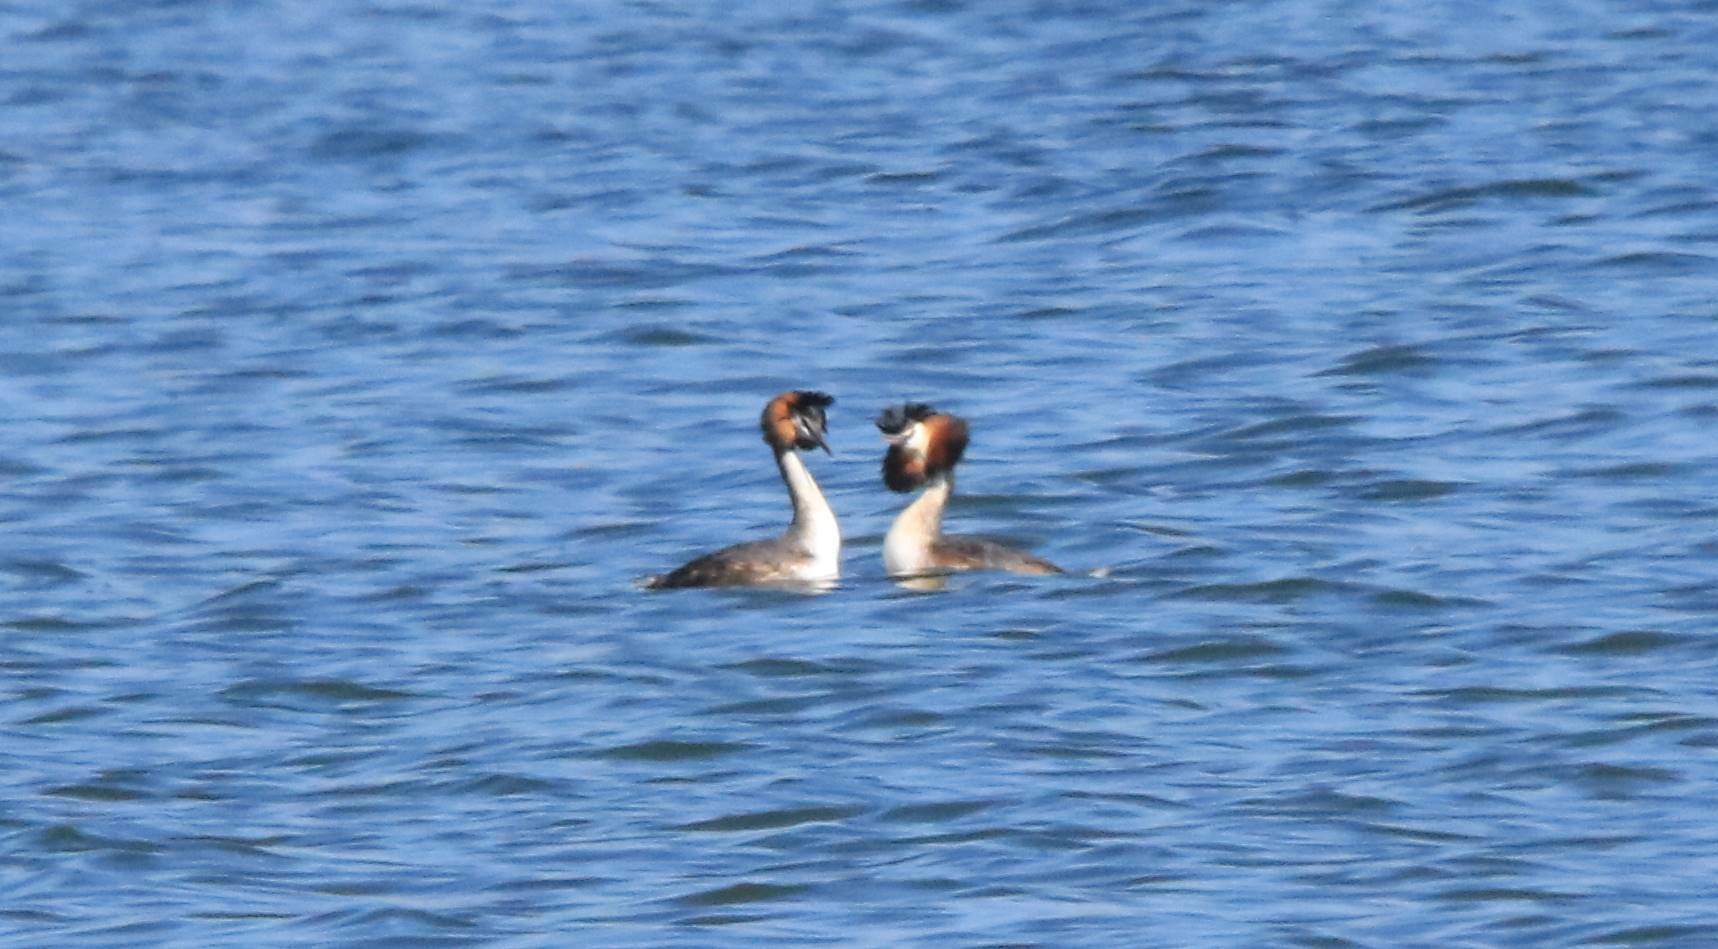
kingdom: Animalia
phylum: Chordata
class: Aves
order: Podicipediformes
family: Podicipedidae
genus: Podiceps
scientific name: Podiceps cristatus
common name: Great crested grebe
